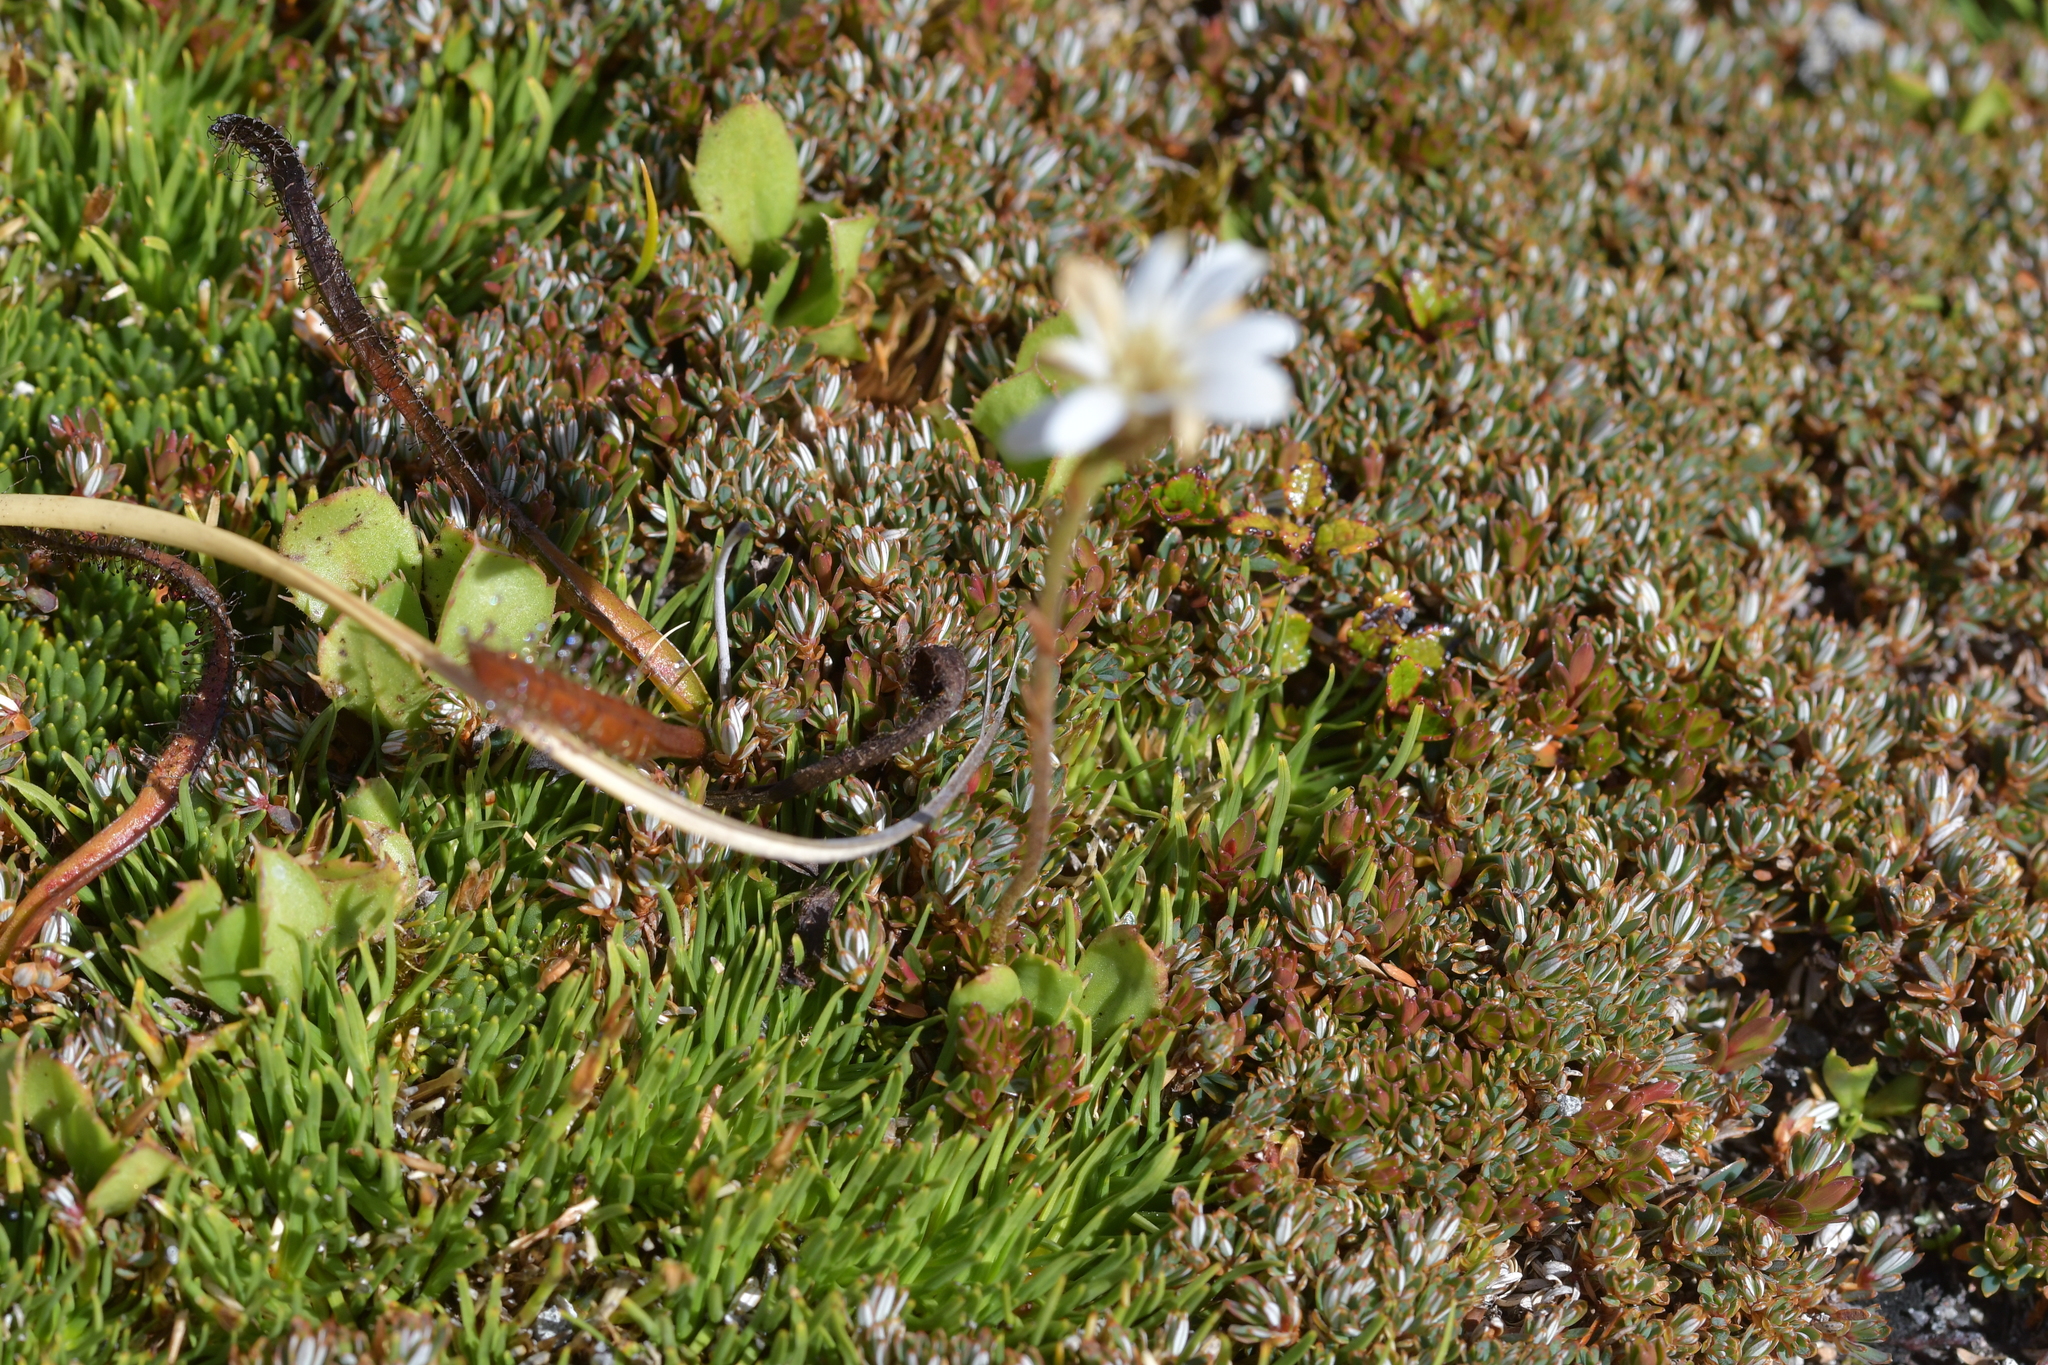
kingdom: Plantae
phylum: Tracheophyta
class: Magnoliopsida
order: Asterales
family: Asteraceae
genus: Celmisia
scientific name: Celmisia glandulosa
